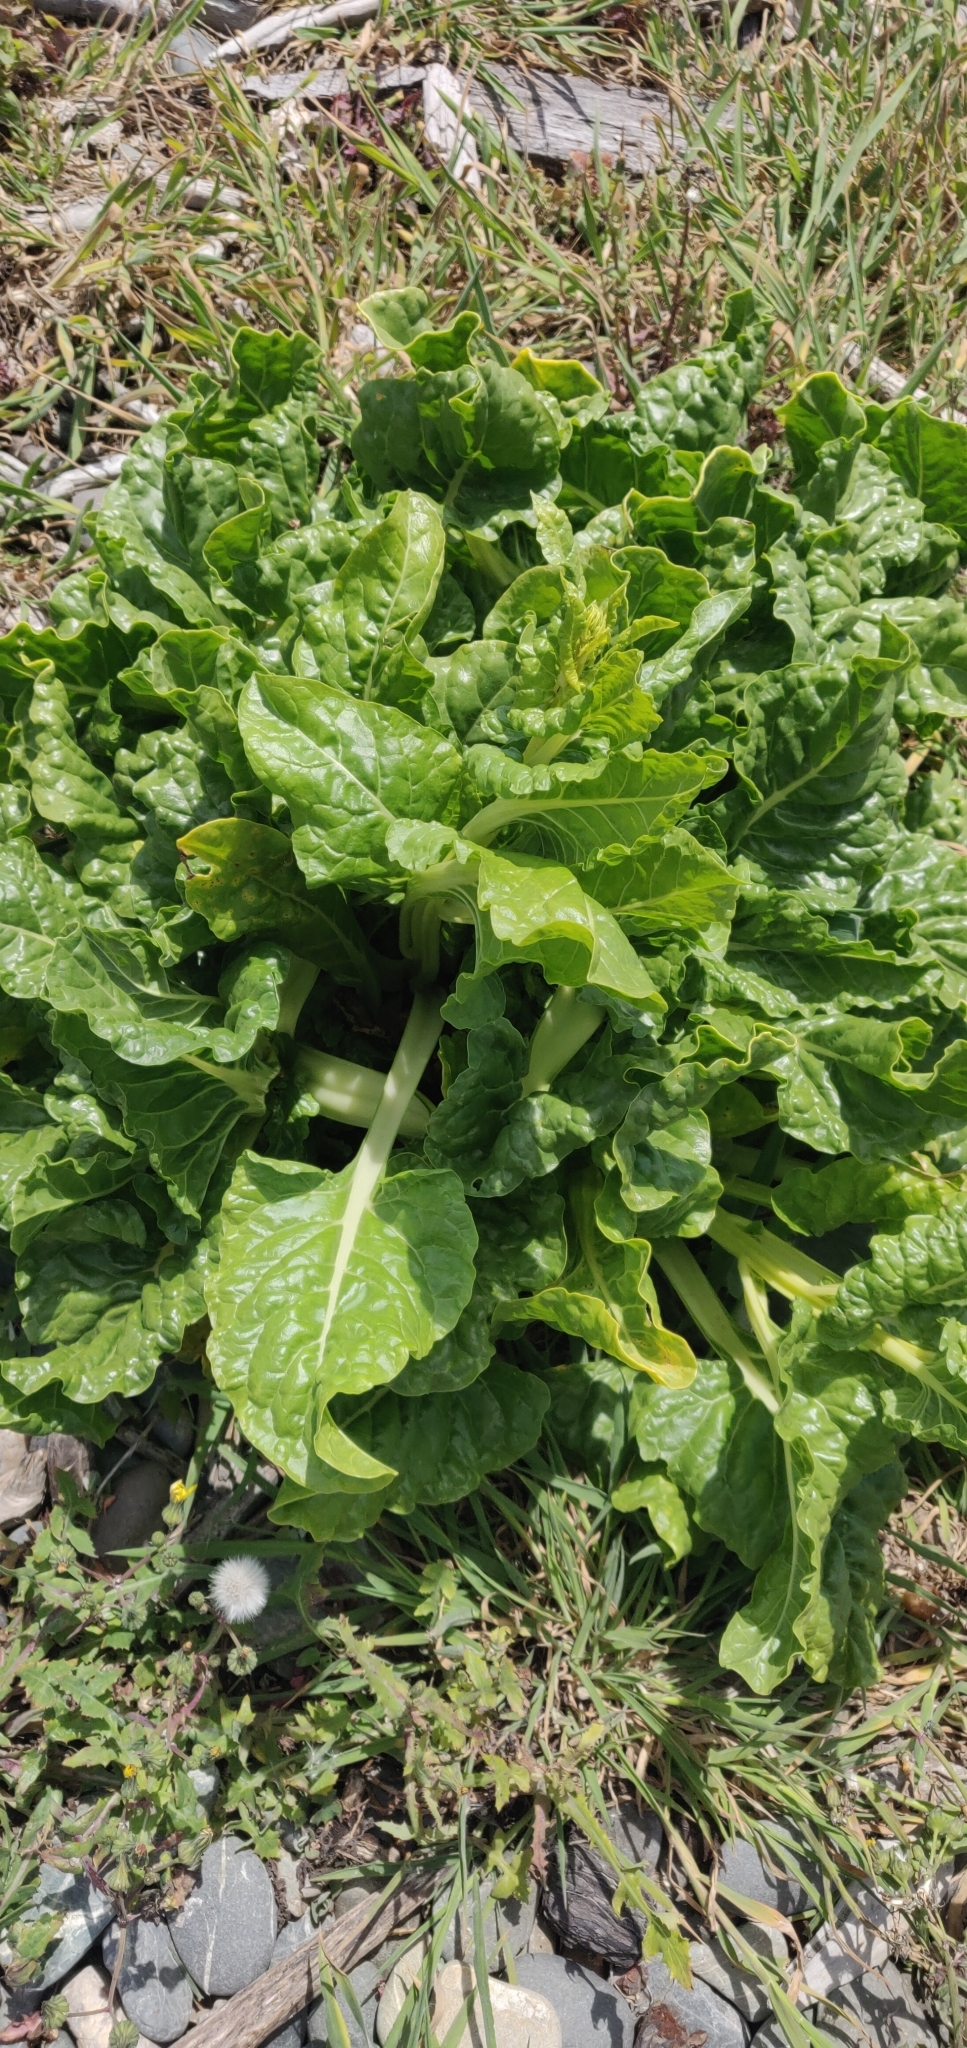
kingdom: Plantae
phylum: Tracheophyta
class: Magnoliopsida
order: Caryophyllales
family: Amaranthaceae
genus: Beta
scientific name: Beta vulgaris
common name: Beet
